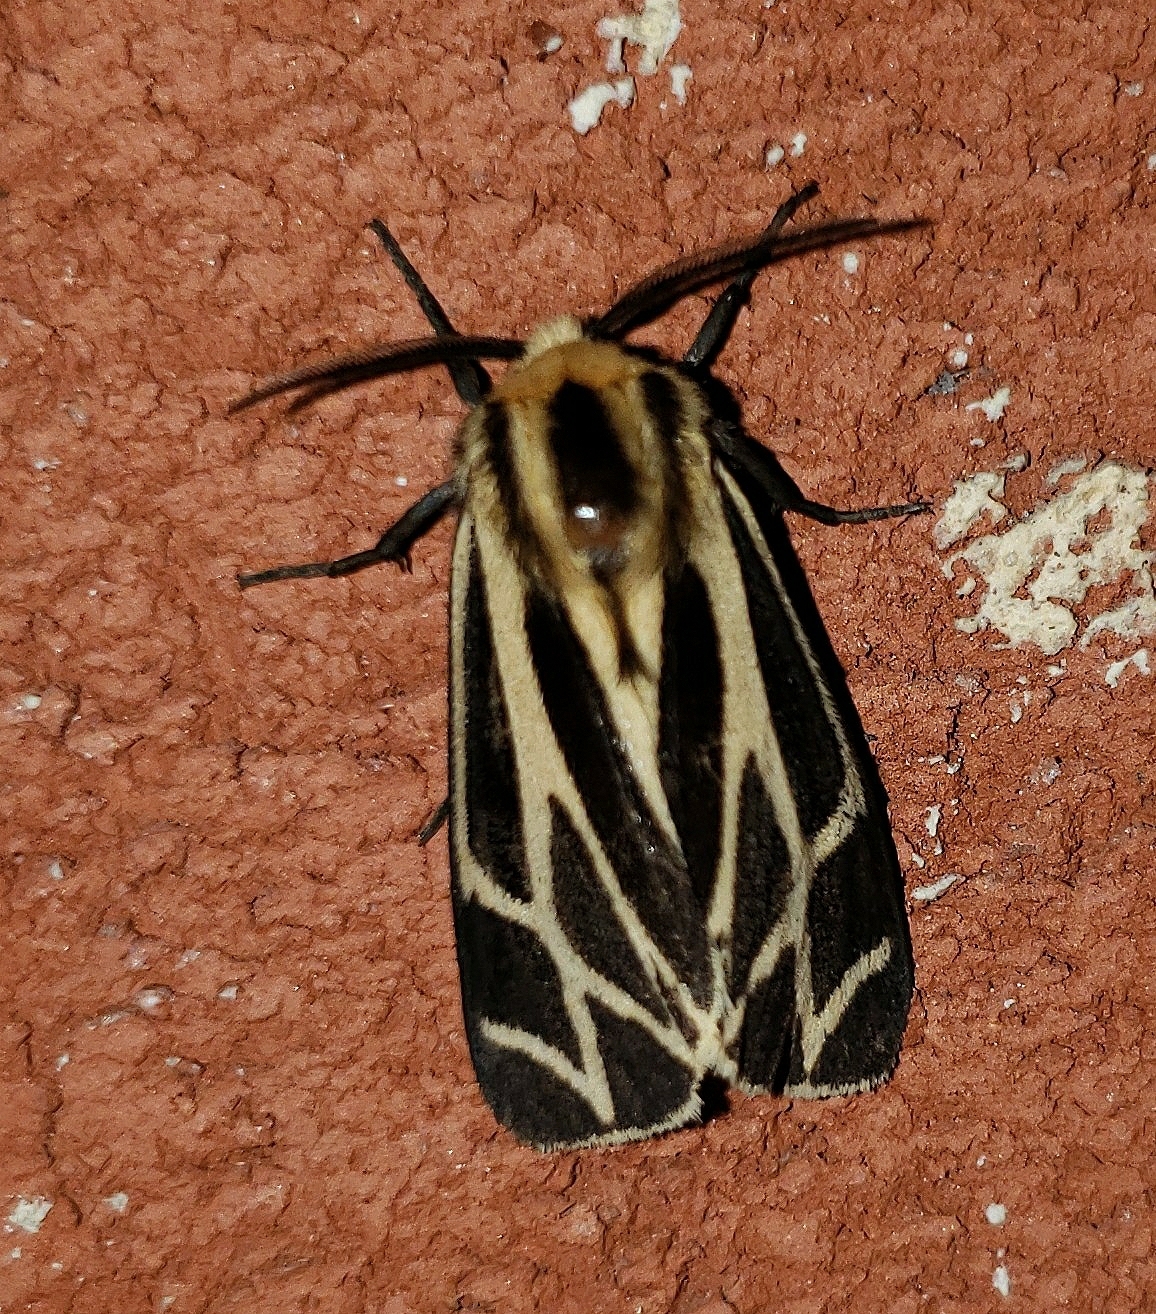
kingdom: Animalia
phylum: Arthropoda
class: Insecta
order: Lepidoptera
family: Erebidae
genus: Apantesis
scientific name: Apantesis phalerata
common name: Harnessed tiger moth
